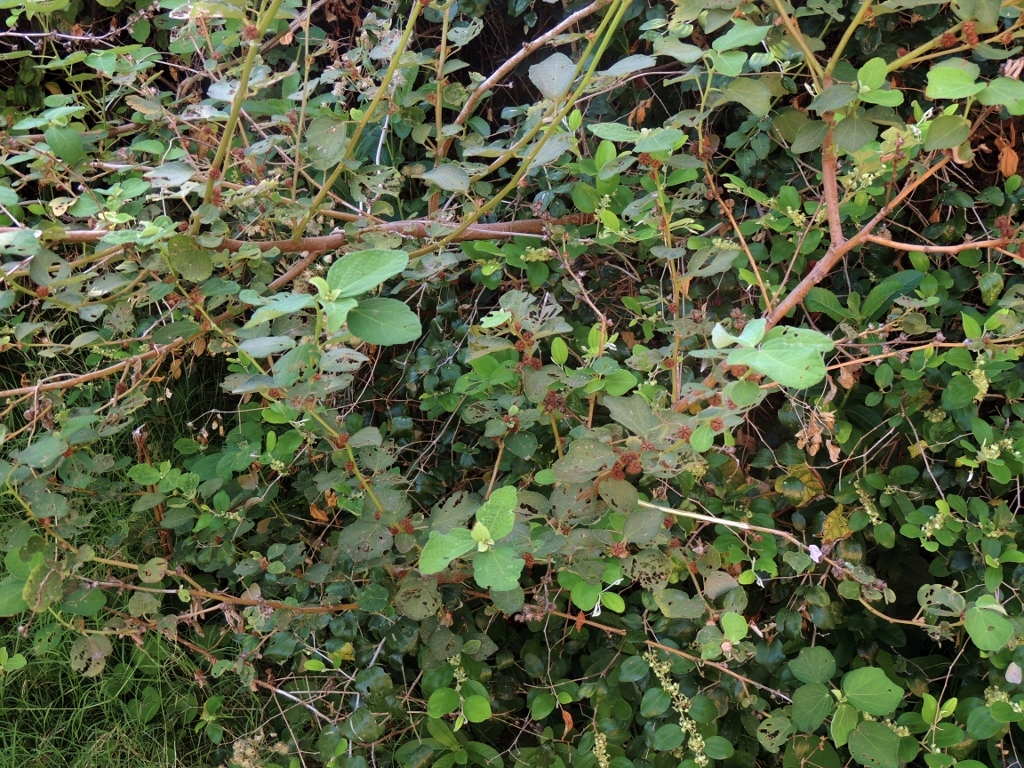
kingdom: Plantae
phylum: Tracheophyta
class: Magnoliopsida
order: Malvales
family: Malvaceae
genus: Urena
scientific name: Urena lobata
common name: Caesarweed
